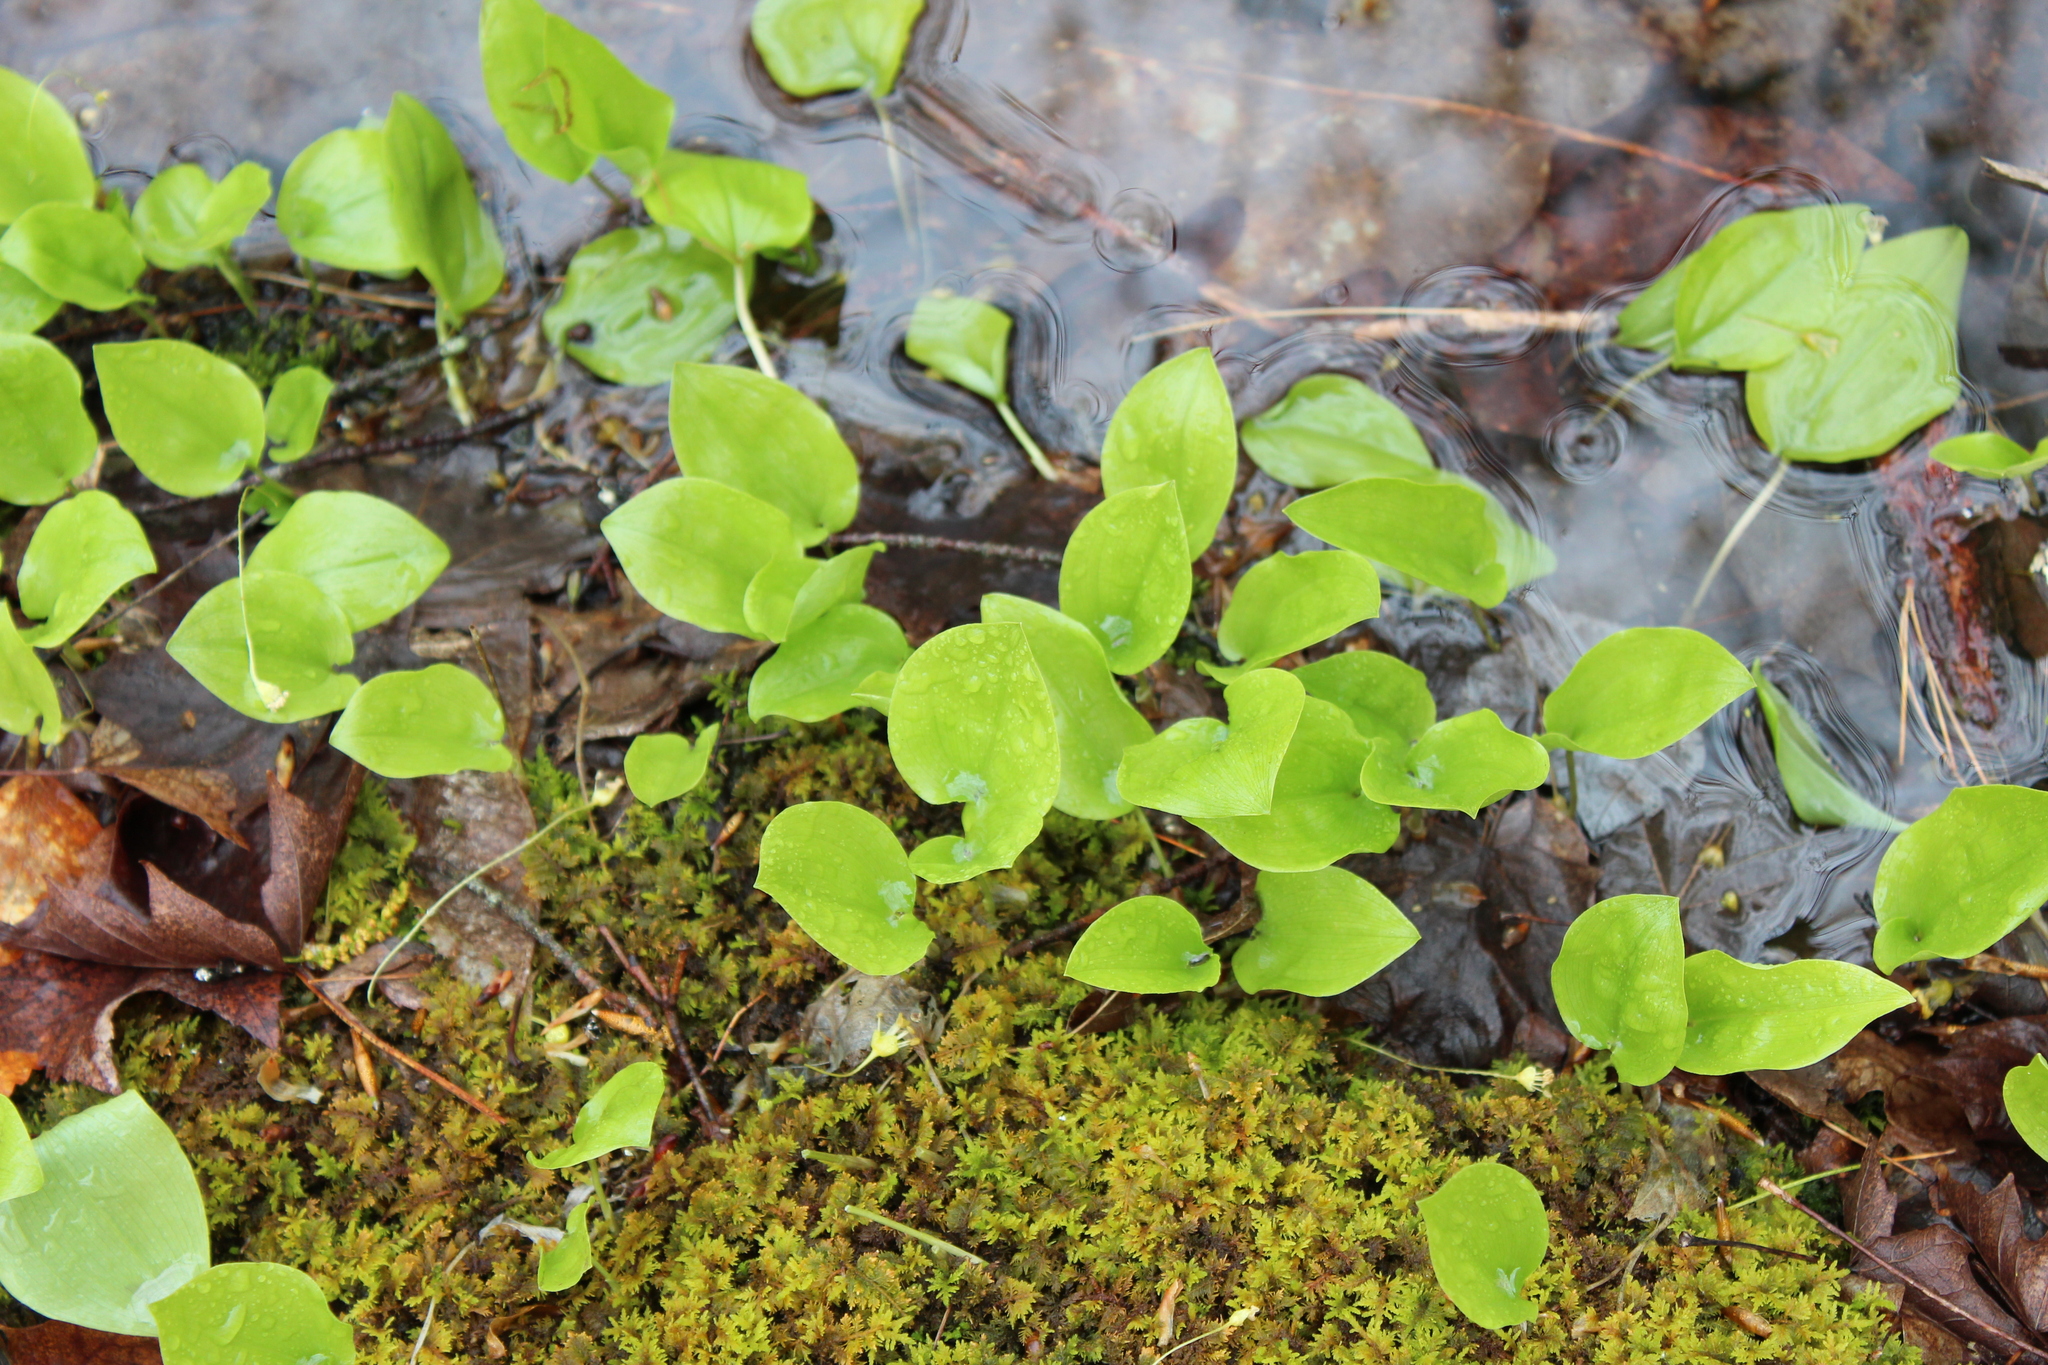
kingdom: Plantae
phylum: Tracheophyta
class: Liliopsida
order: Asparagales
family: Asparagaceae
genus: Maianthemum
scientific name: Maianthemum canadense
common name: False lily-of-the-valley
